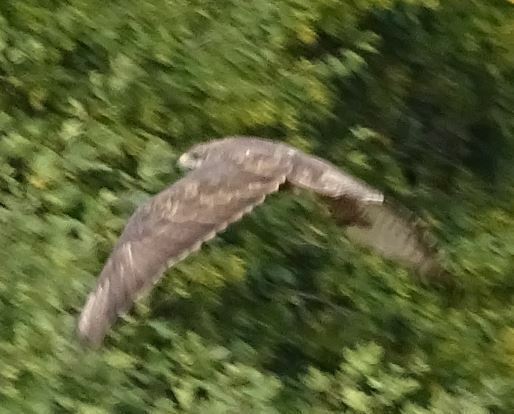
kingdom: Animalia
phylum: Chordata
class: Aves
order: Accipitriformes
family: Accipitridae
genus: Buteo
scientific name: Buteo buteo
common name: Common buzzard
